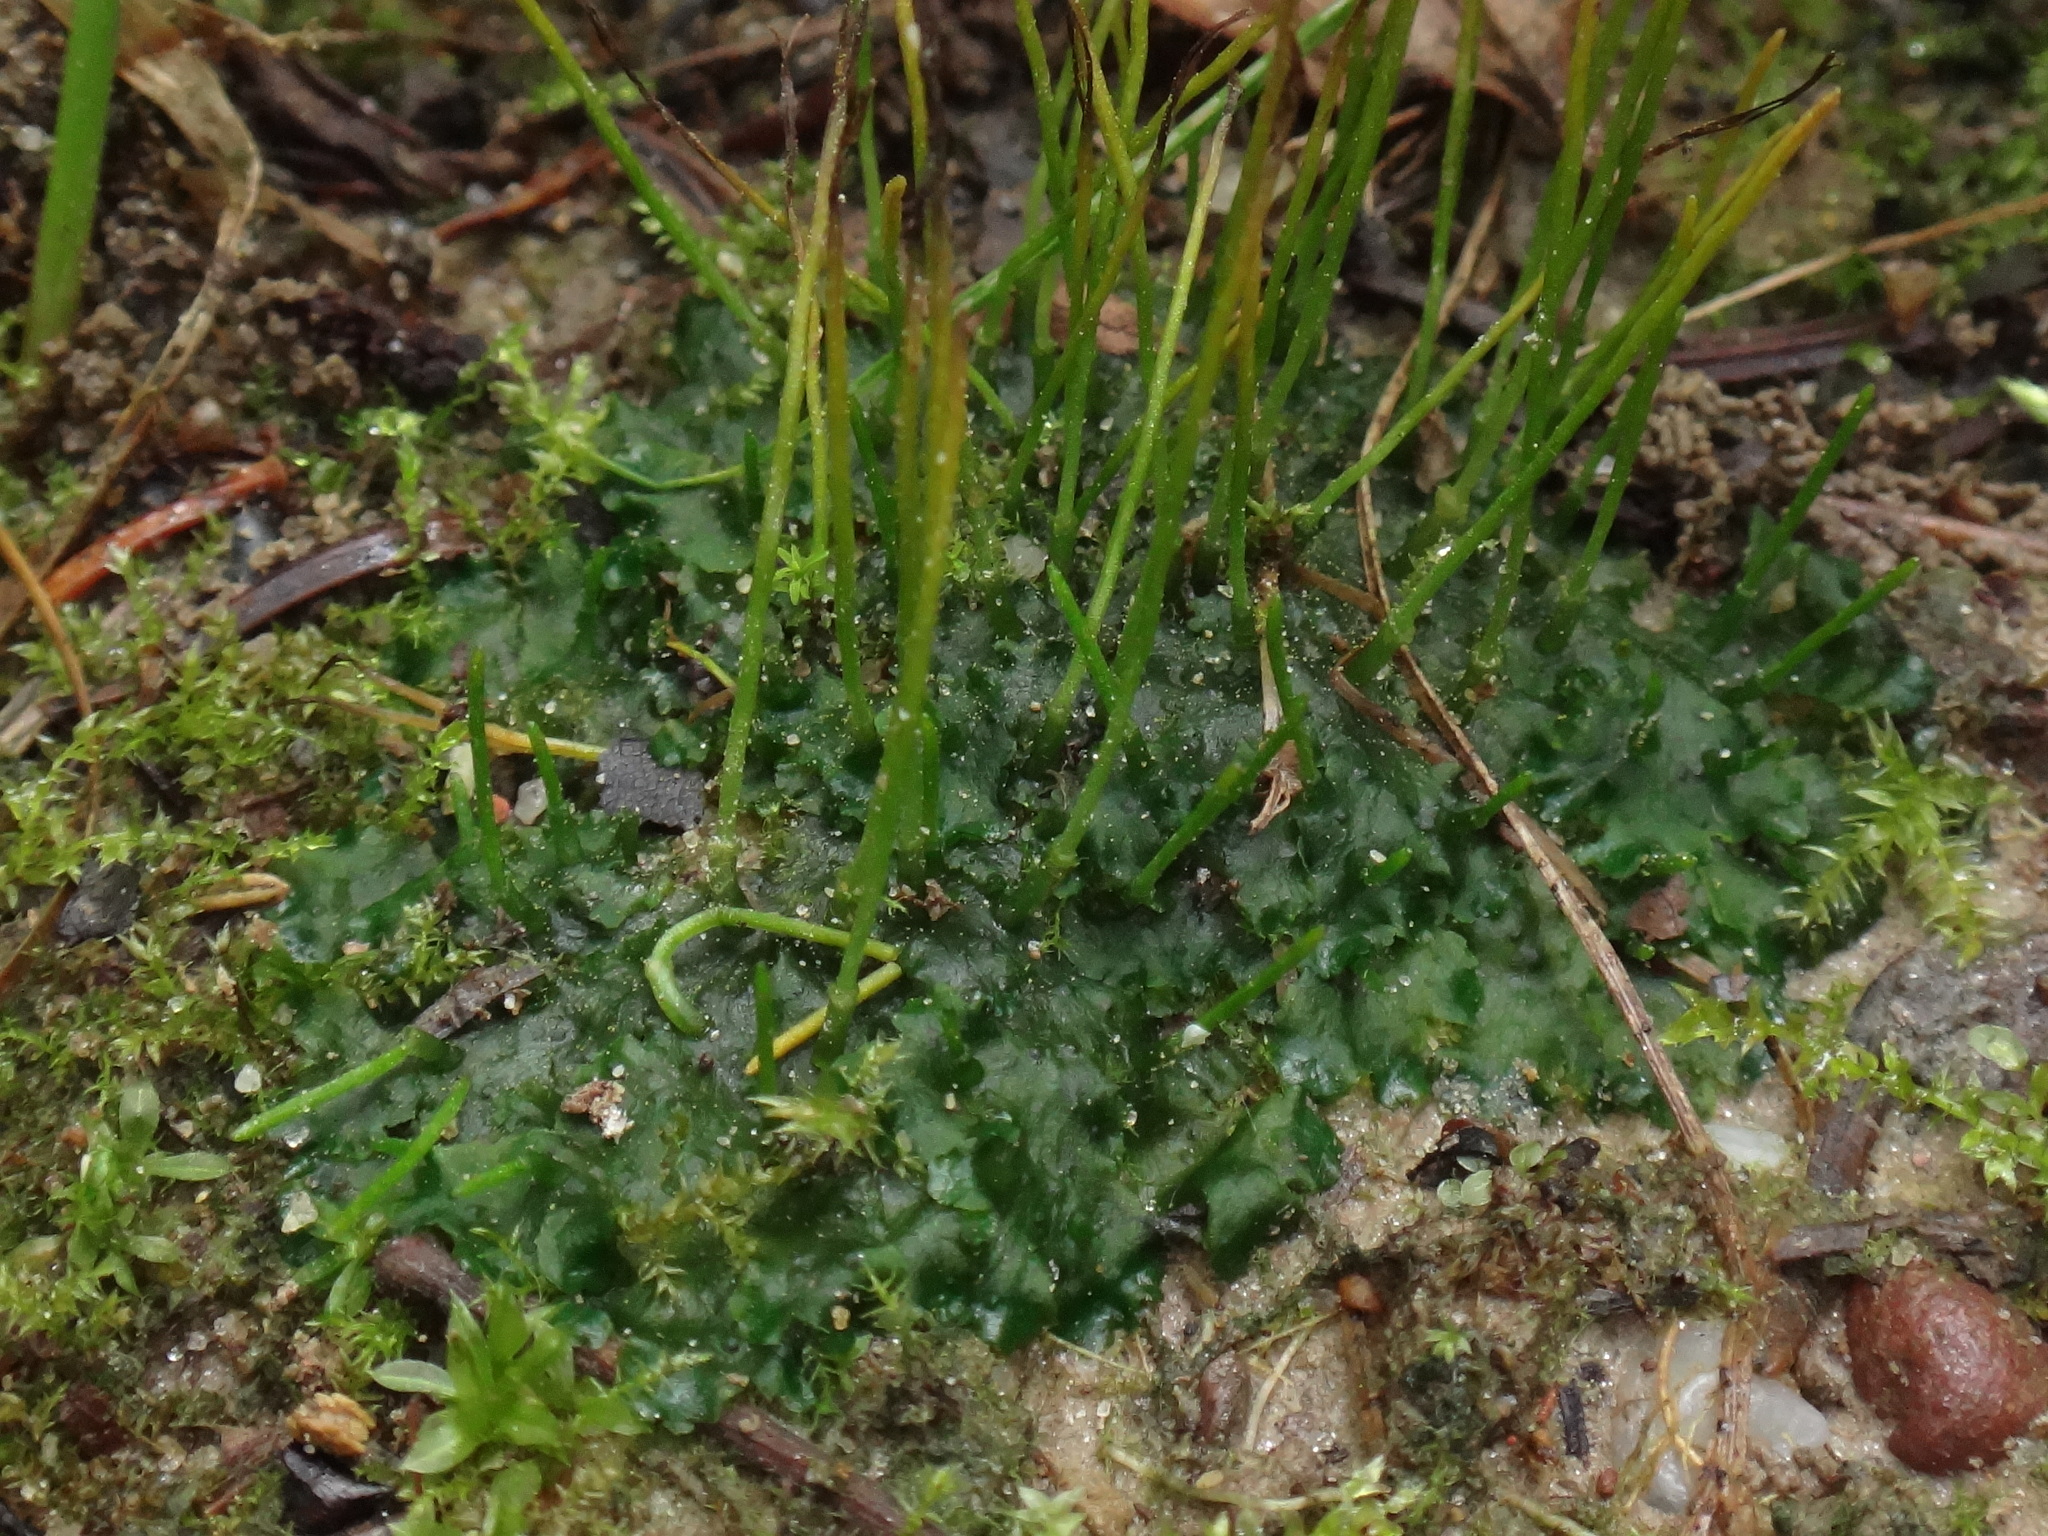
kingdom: Plantae
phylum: Anthocerotophyta
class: Anthocerotopsida
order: Notothyladales
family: Notothyladaceae
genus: Phaeoceros
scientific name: Phaeoceros carolinianus
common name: Carolina hornwort
